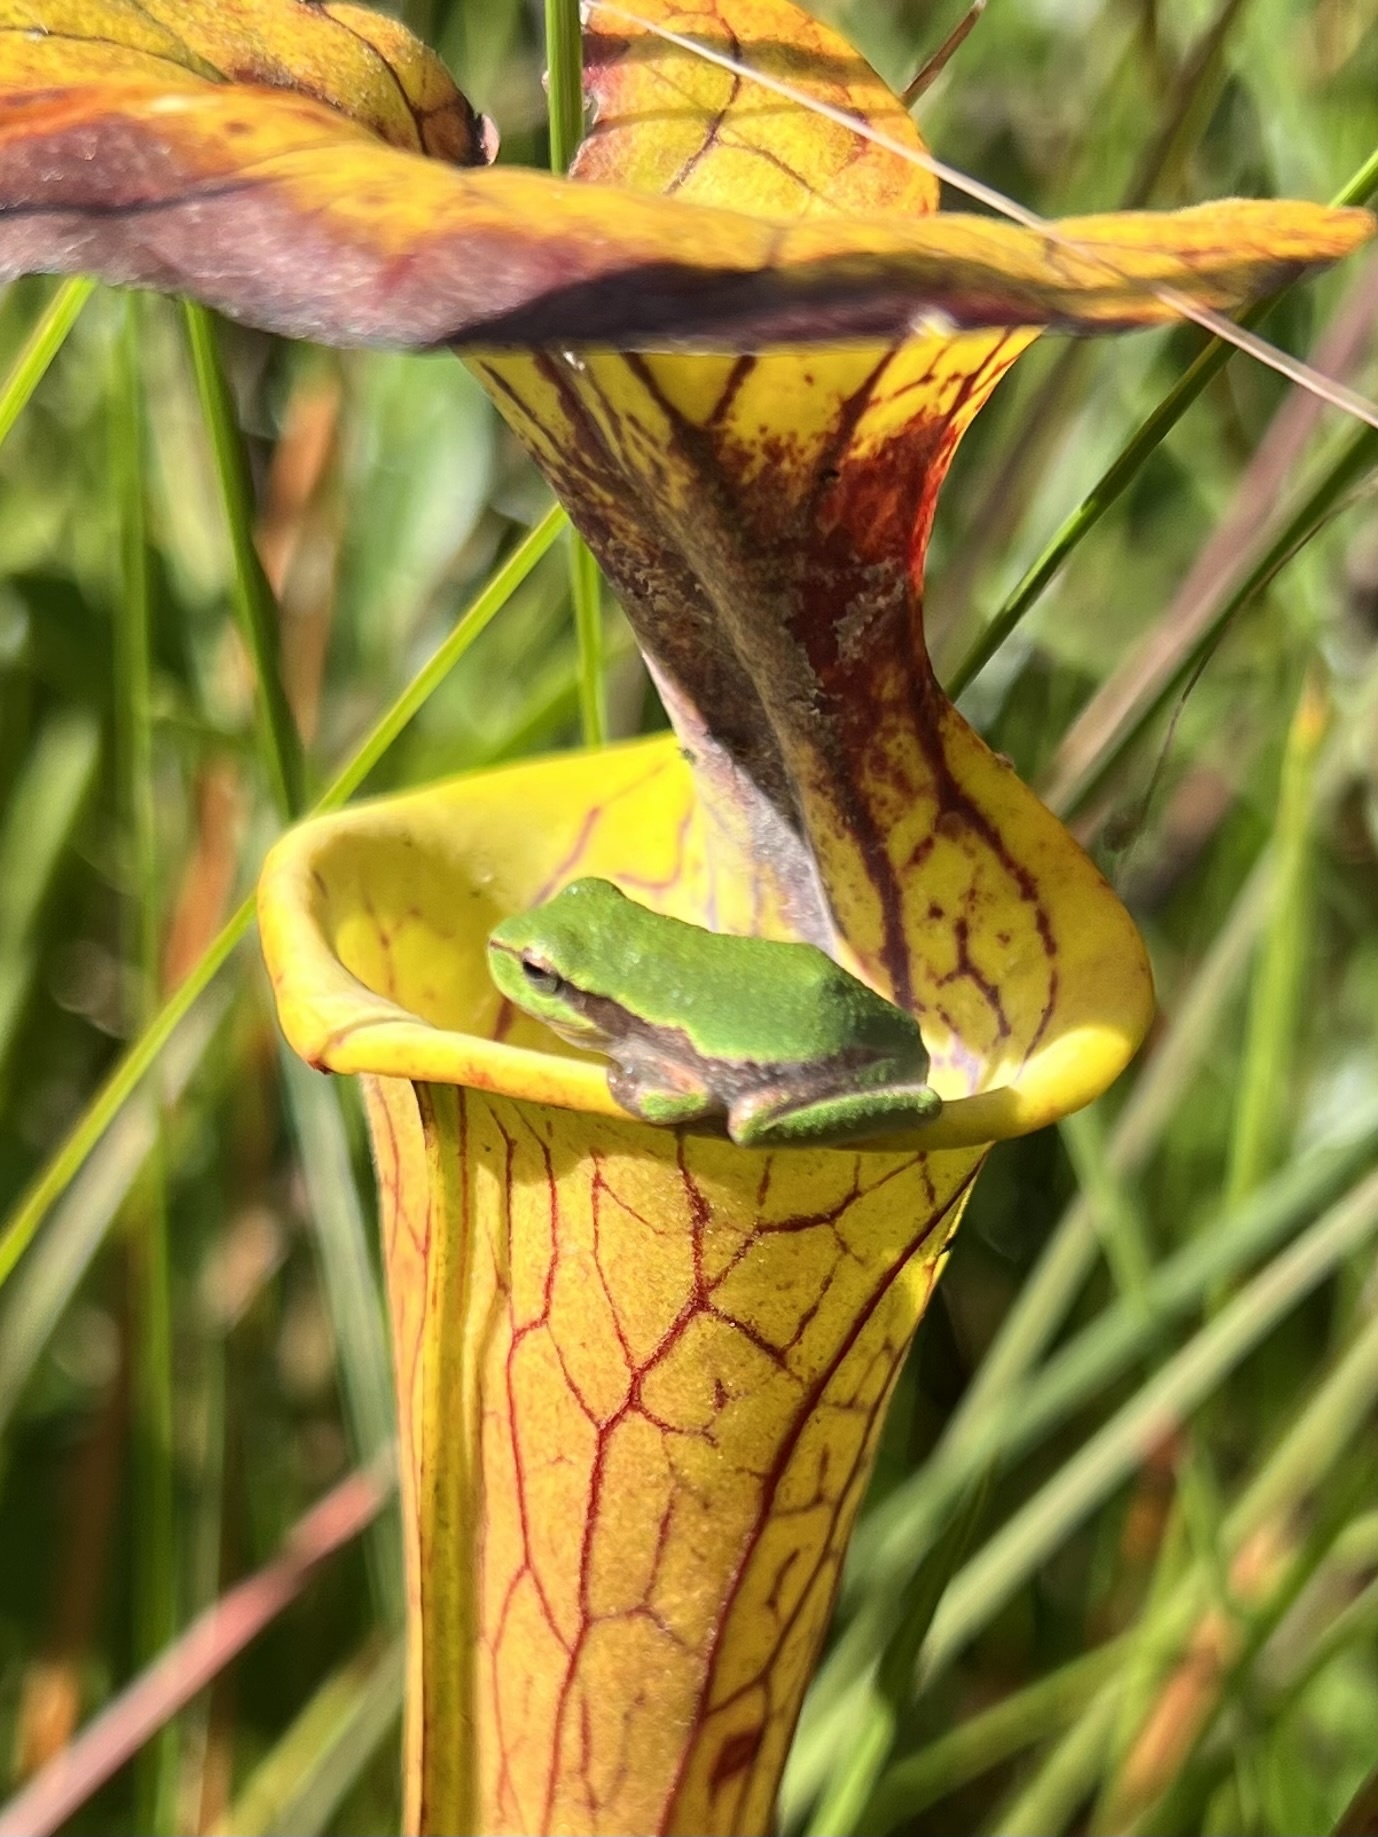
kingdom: Animalia
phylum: Chordata
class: Amphibia
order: Anura
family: Hylidae
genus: Hyla
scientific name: Hyla femoralis
